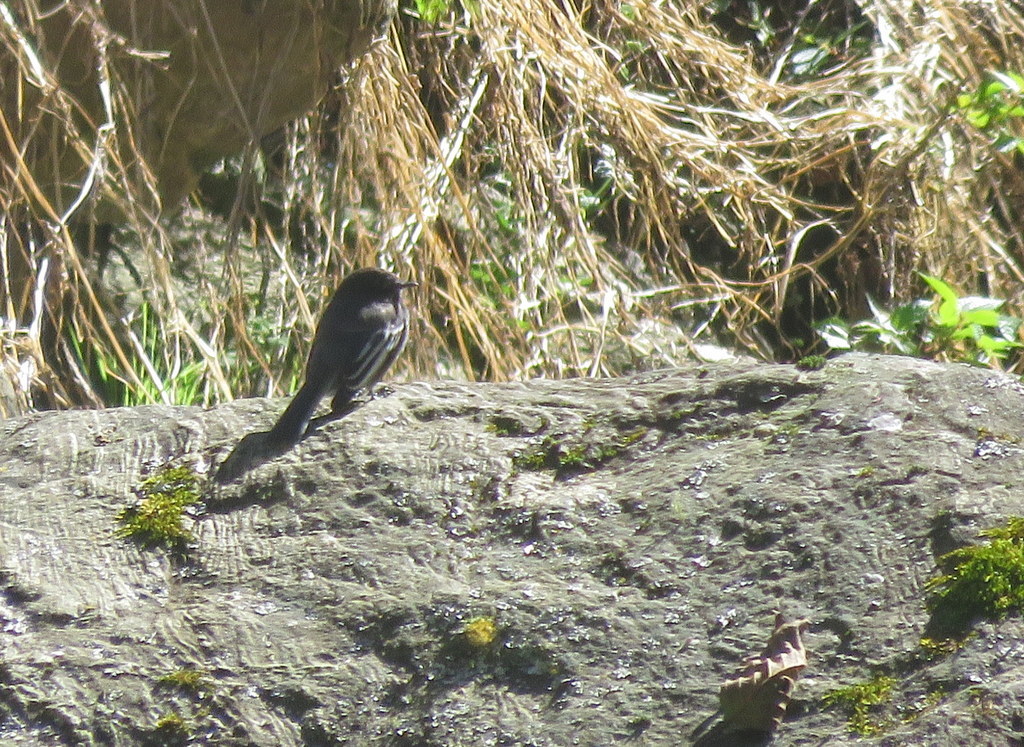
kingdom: Animalia
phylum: Chordata
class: Aves
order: Passeriformes
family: Tyrannidae
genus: Sayornis
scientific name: Sayornis nigricans
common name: Black phoebe
